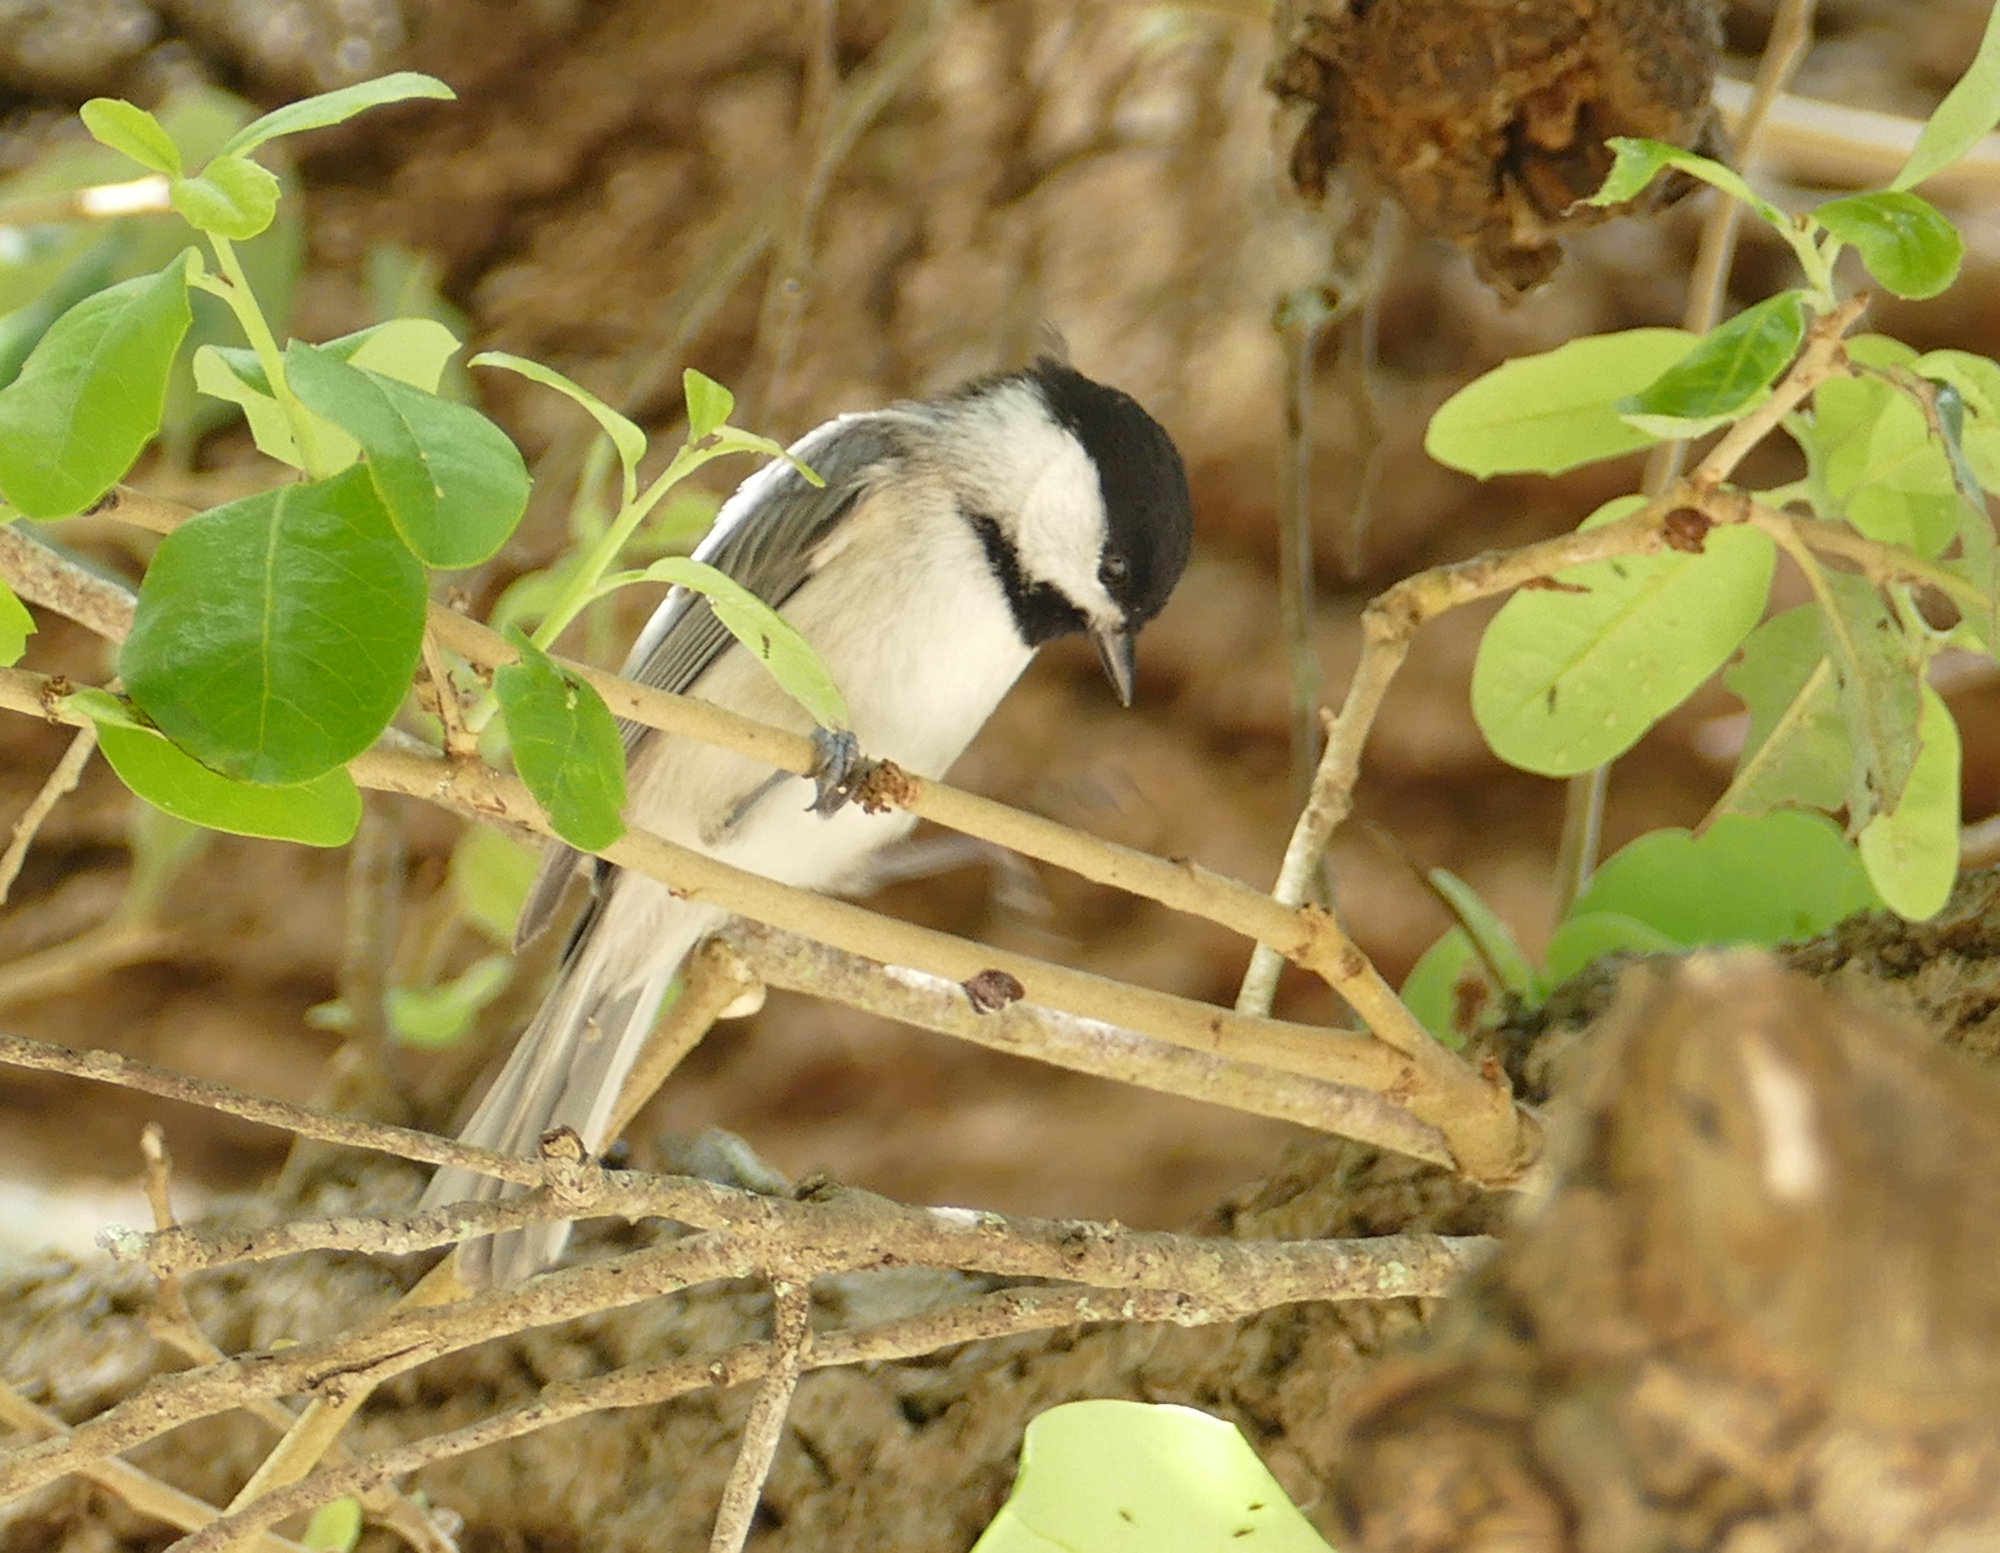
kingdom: Animalia
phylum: Chordata
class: Aves
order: Passeriformes
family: Paridae
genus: Poecile
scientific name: Poecile carolinensis
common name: Carolina chickadee
